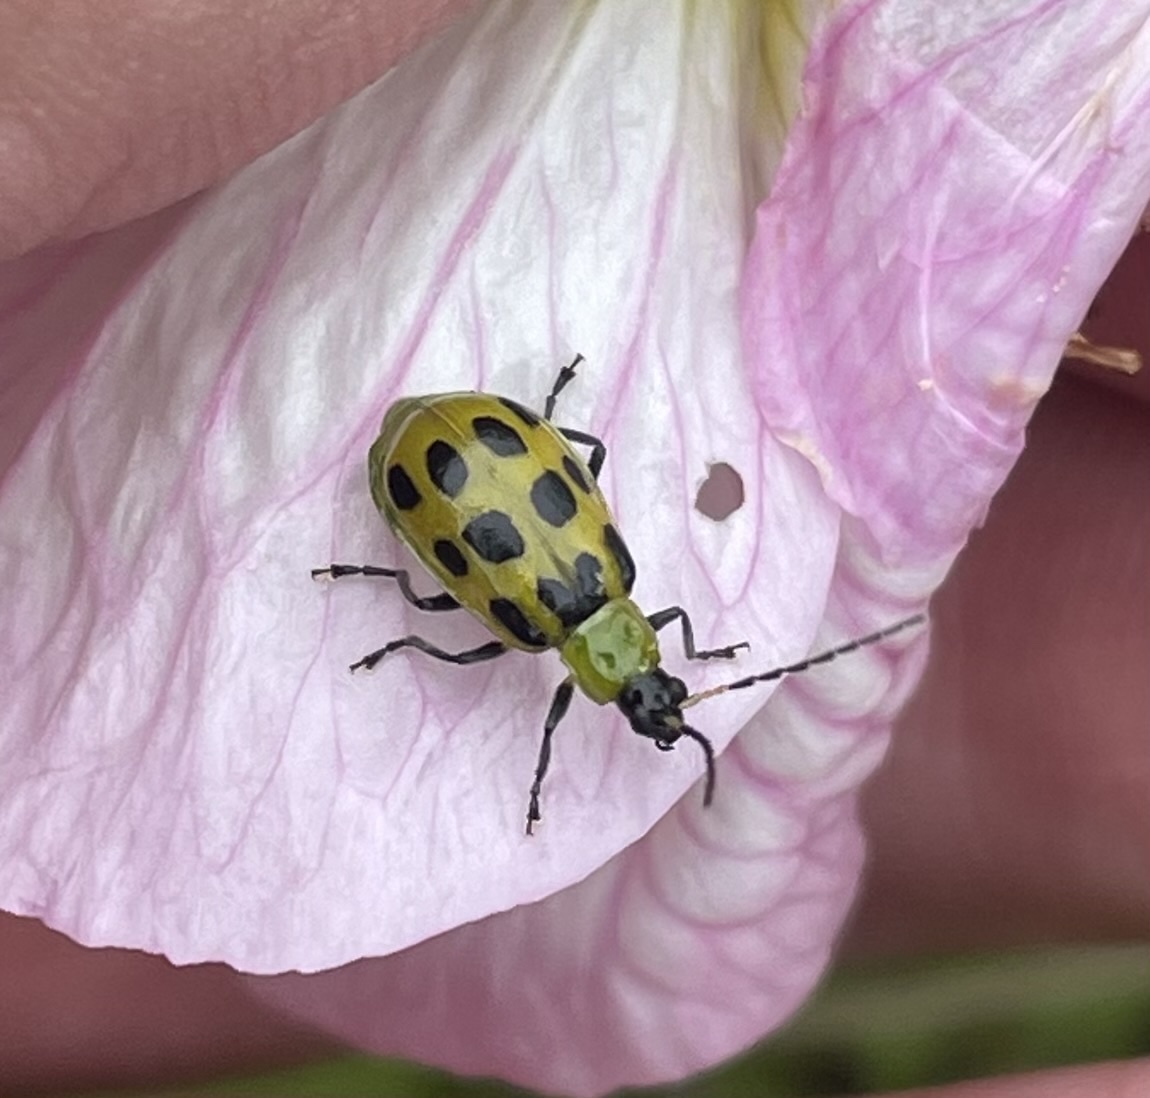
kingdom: Animalia
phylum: Arthropoda
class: Insecta
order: Coleoptera
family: Chrysomelidae
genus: Diabrotica
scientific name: Diabrotica undecimpunctata
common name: Spotted cucumber beetle
